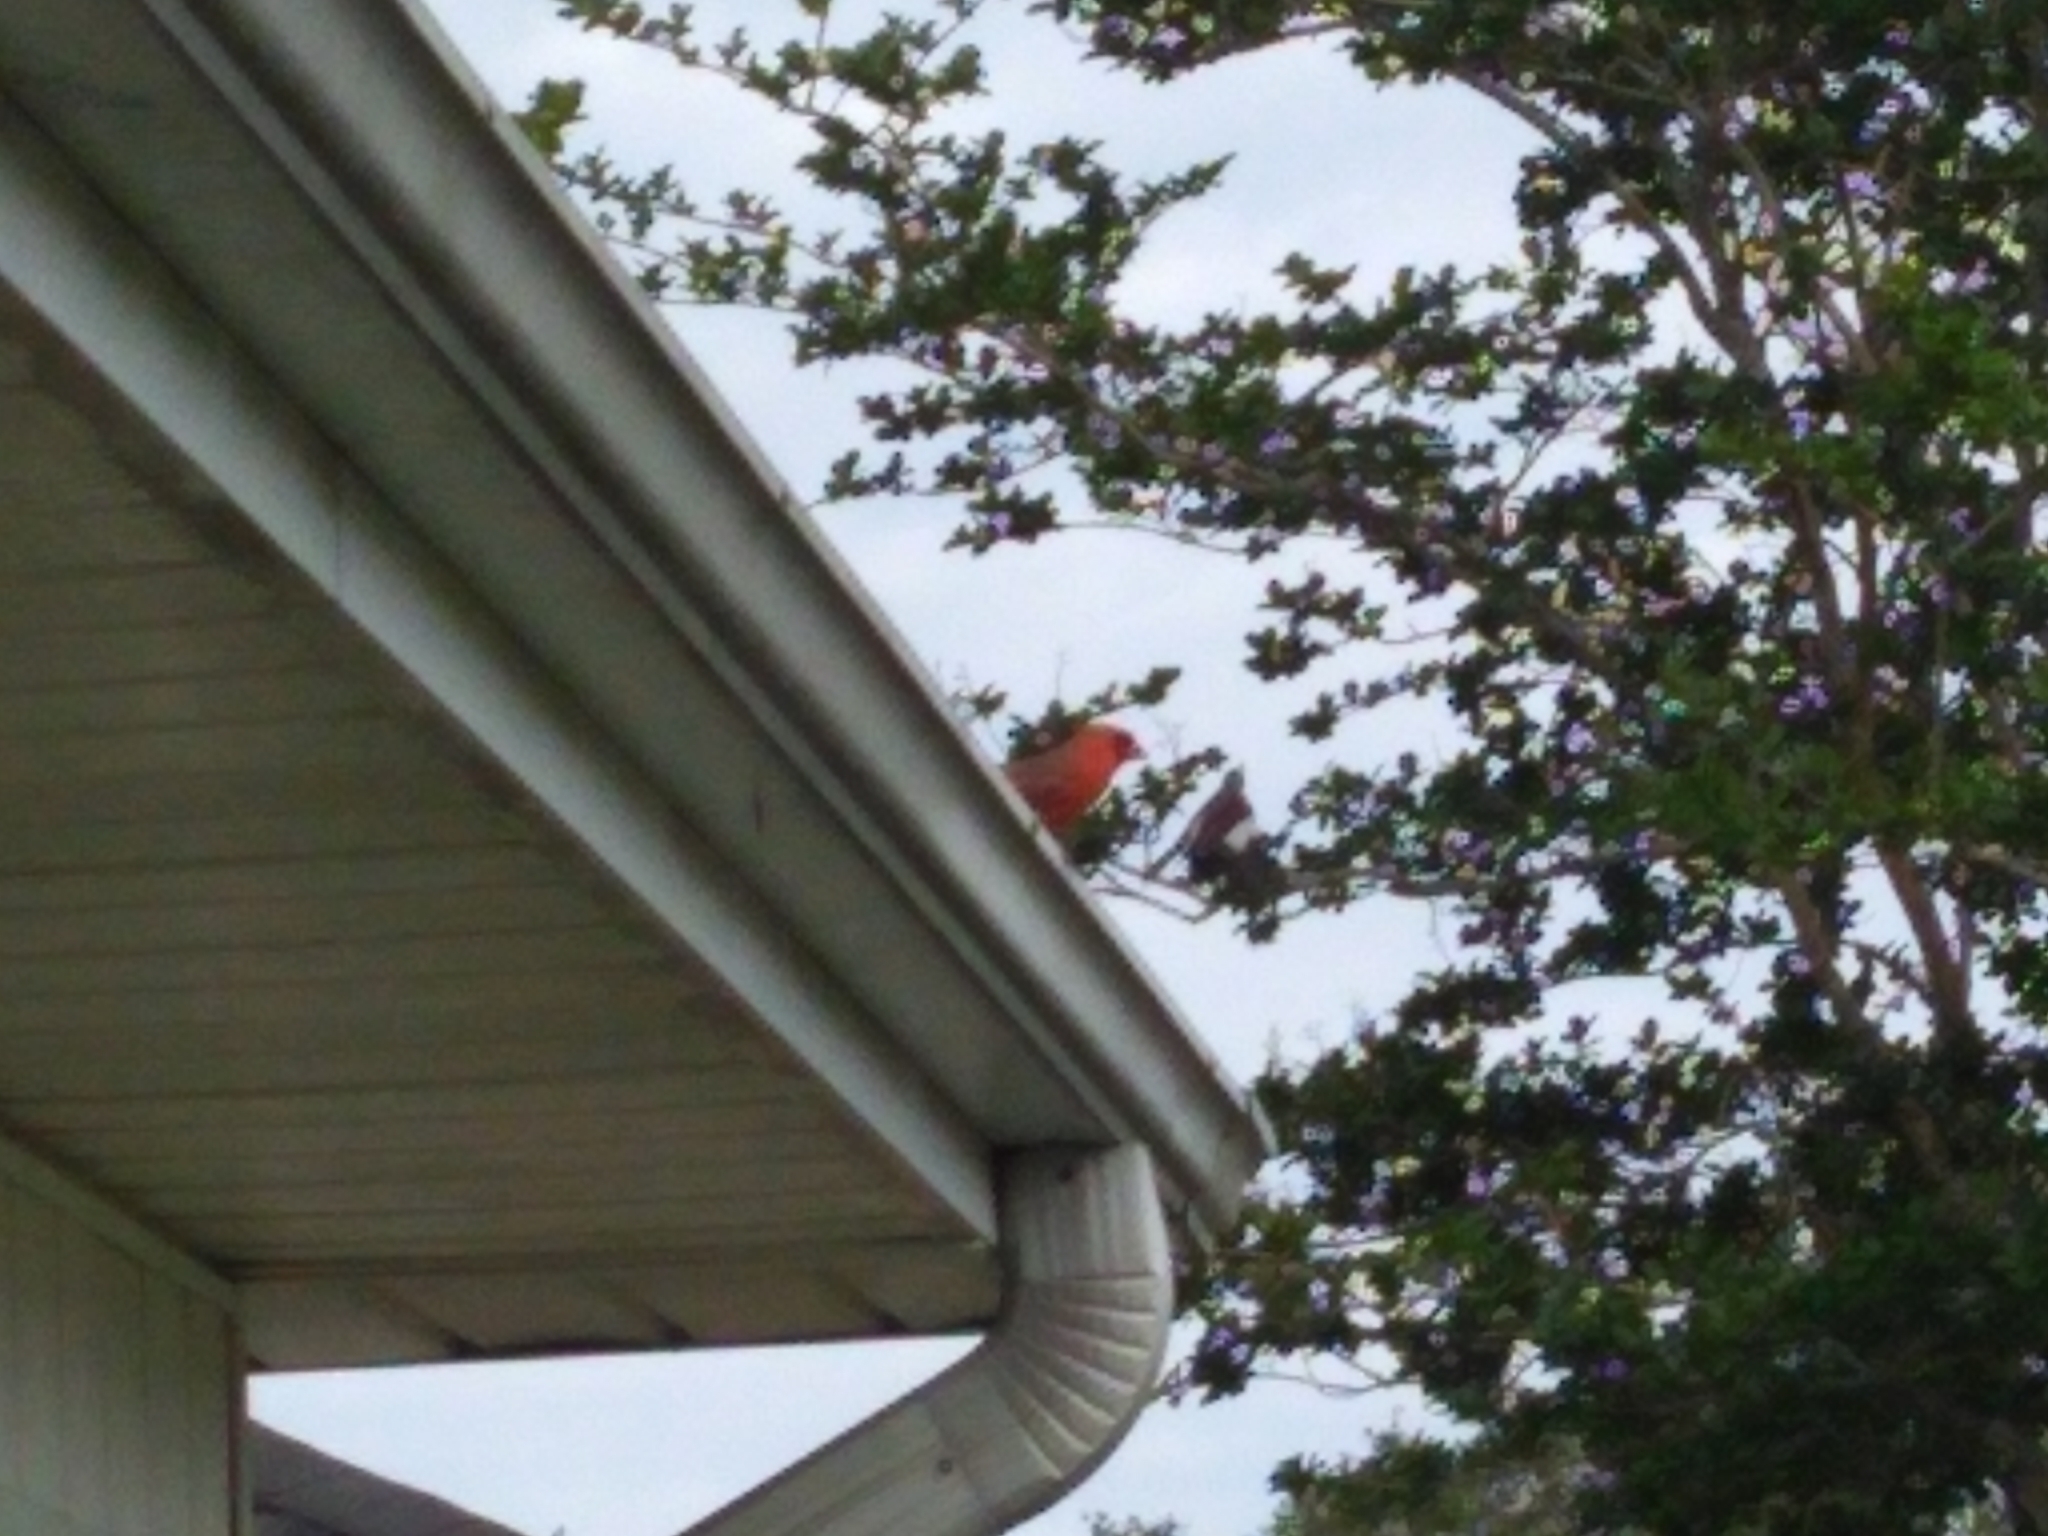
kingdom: Animalia
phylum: Chordata
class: Aves
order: Passeriformes
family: Cardinalidae
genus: Cardinalis
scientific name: Cardinalis cardinalis
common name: Northern cardinal
